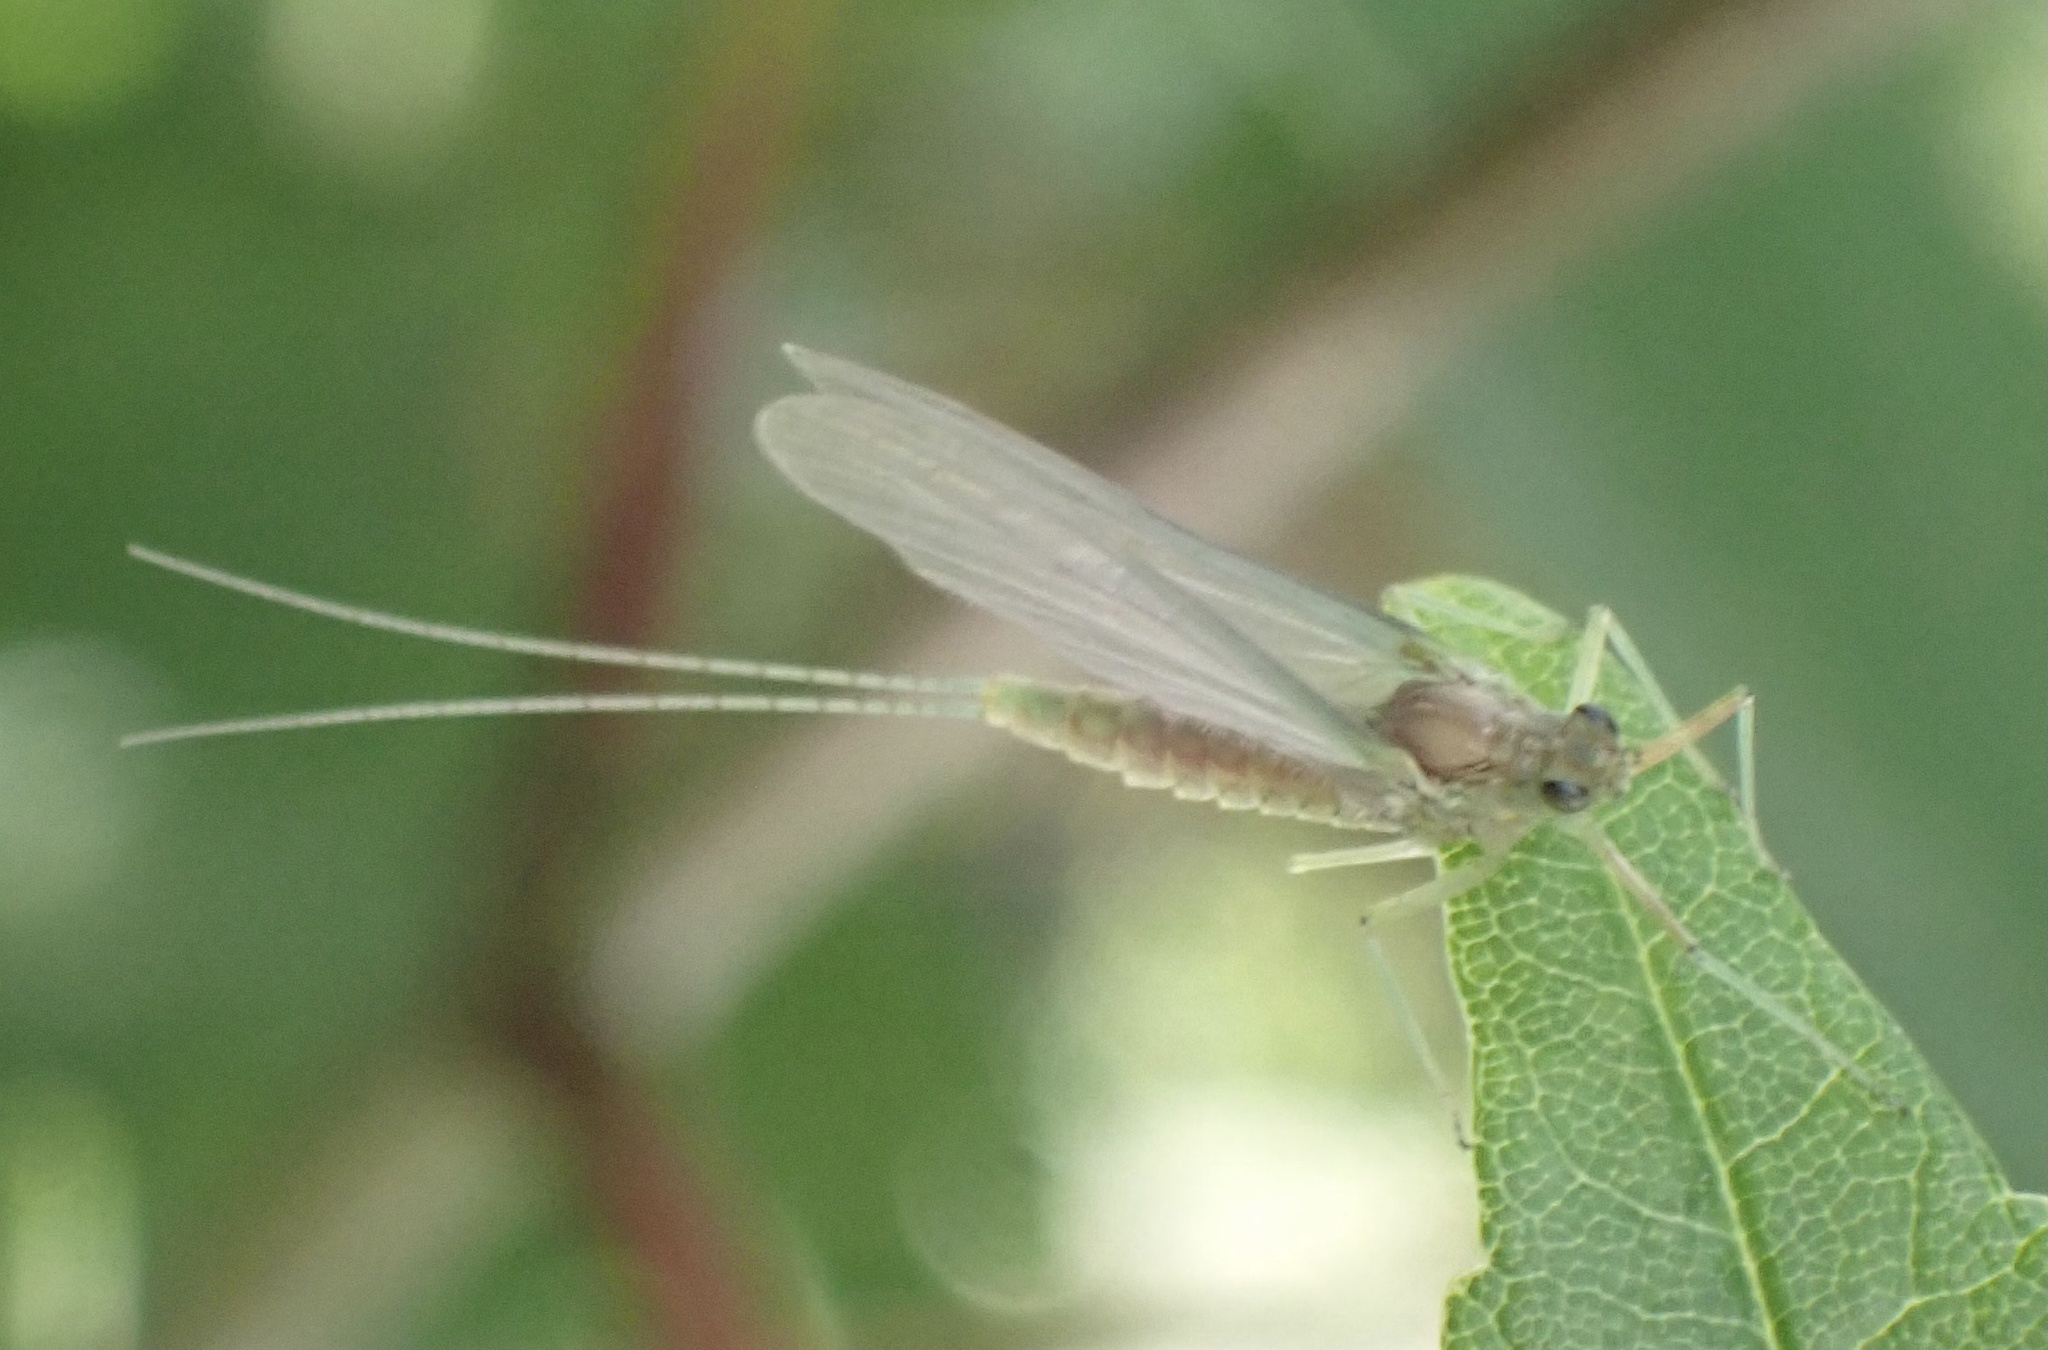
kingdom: Animalia
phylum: Arthropoda
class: Insecta
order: Ephemeroptera
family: Baetidae
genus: Cloeon
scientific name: Cloeon dipterum
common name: Pond olive
